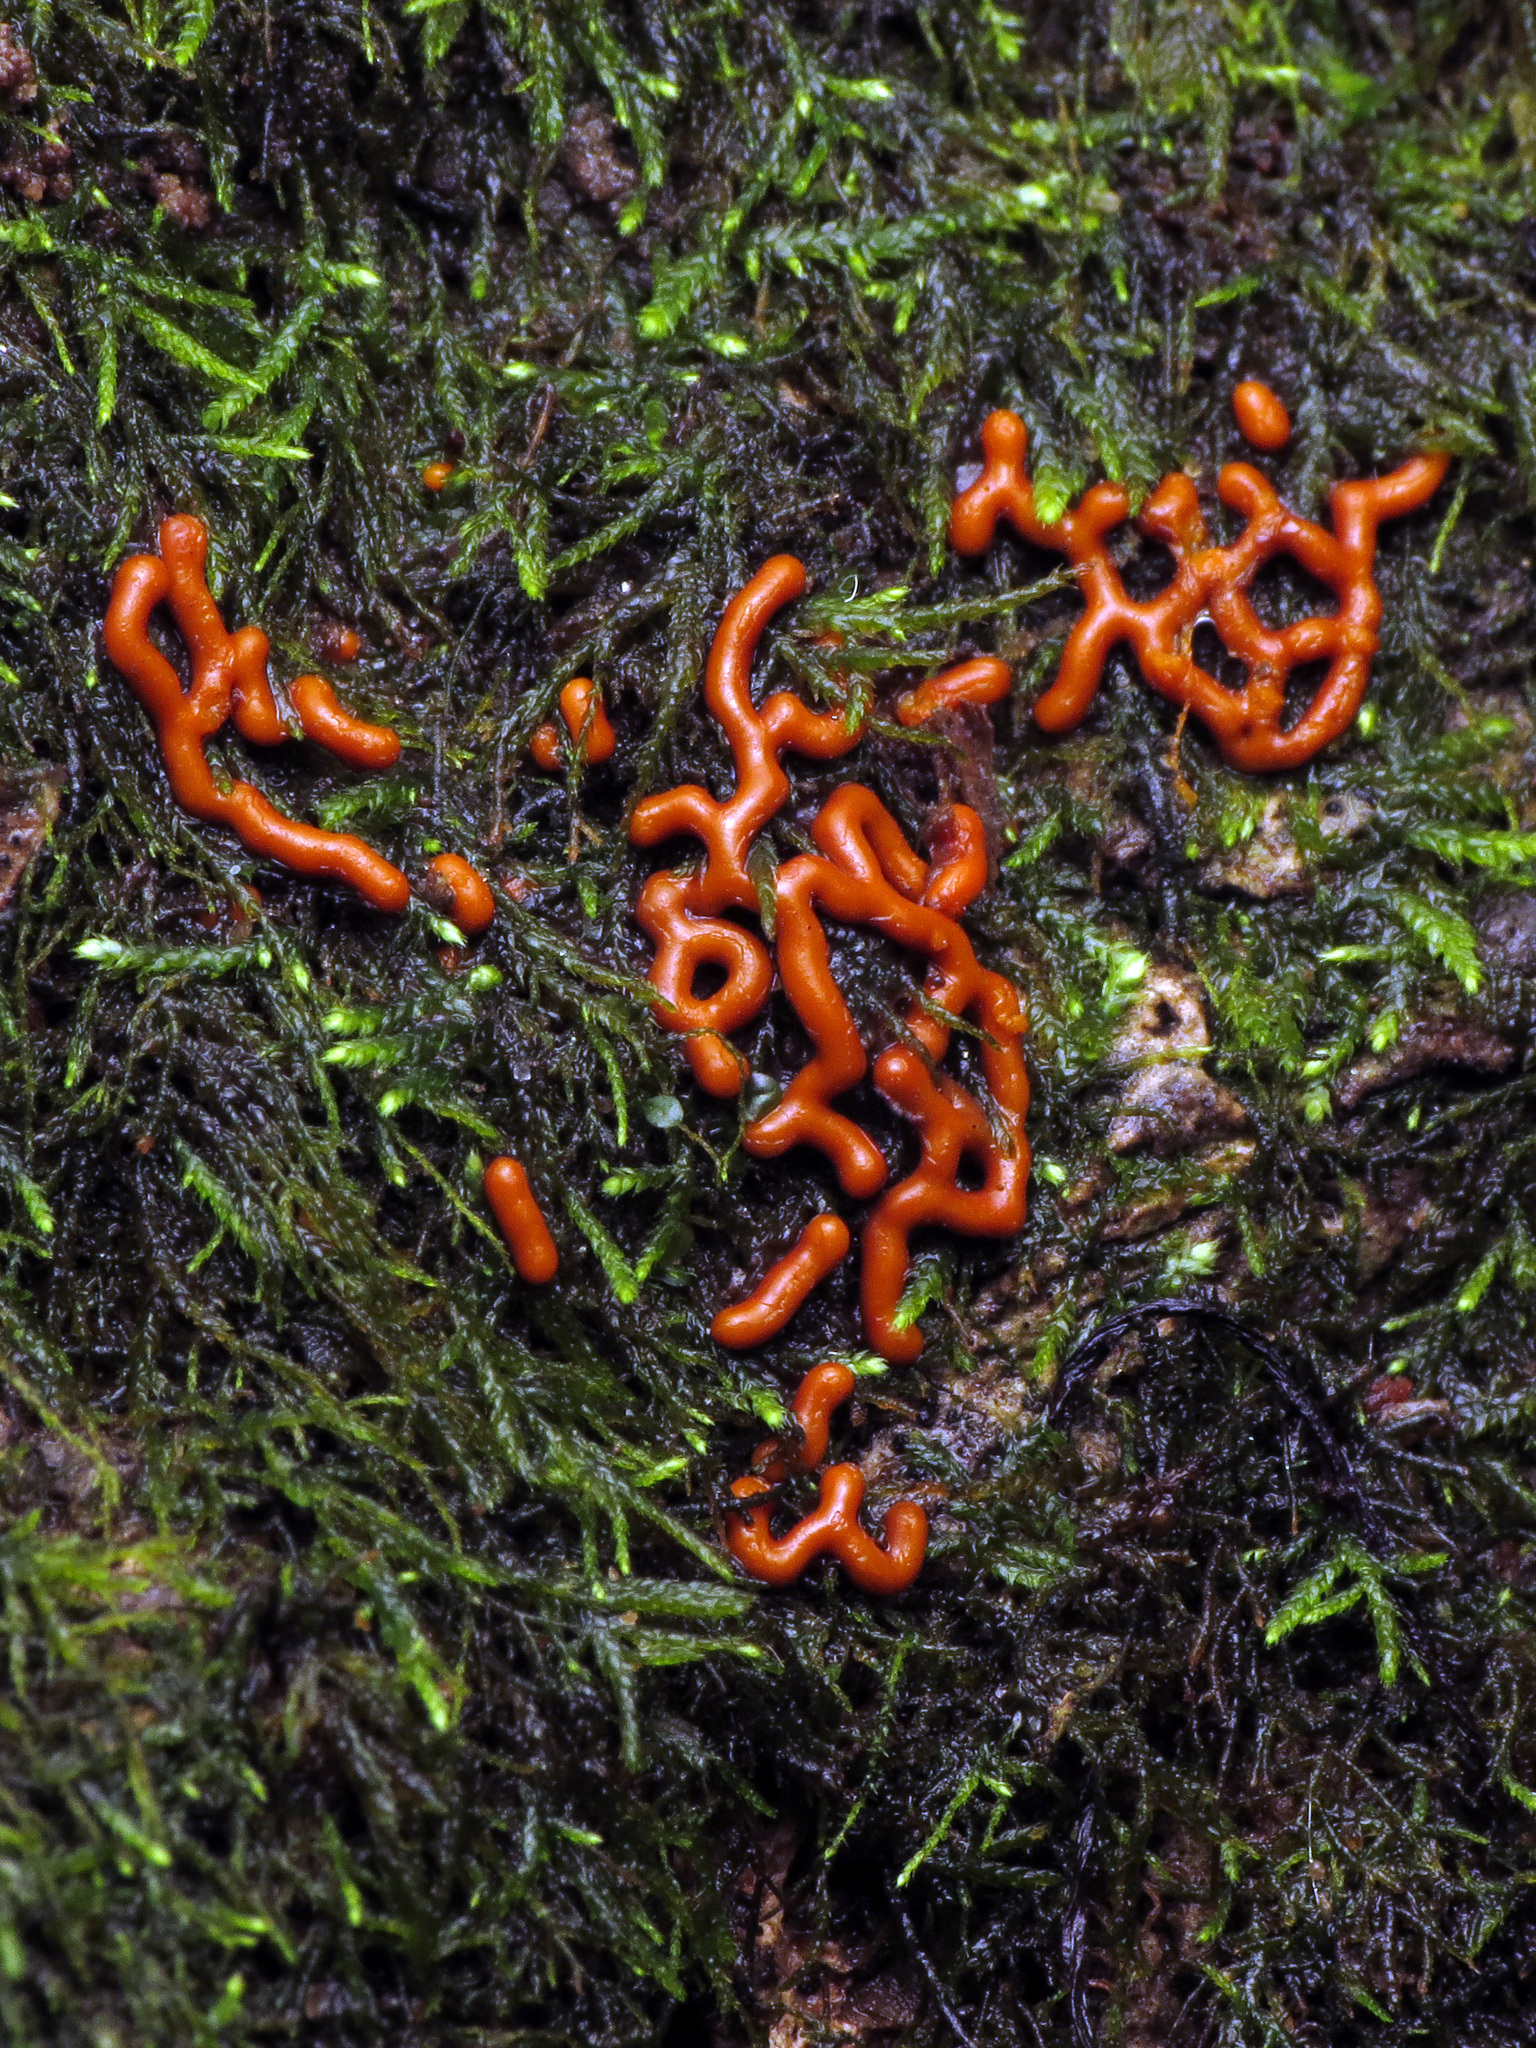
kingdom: Protozoa
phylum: Mycetozoa
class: Myxomycetes
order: Trichiales
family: Arcyriaceae
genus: Hemitrichia
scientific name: Hemitrichia serpula
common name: Pretzel slime mold
